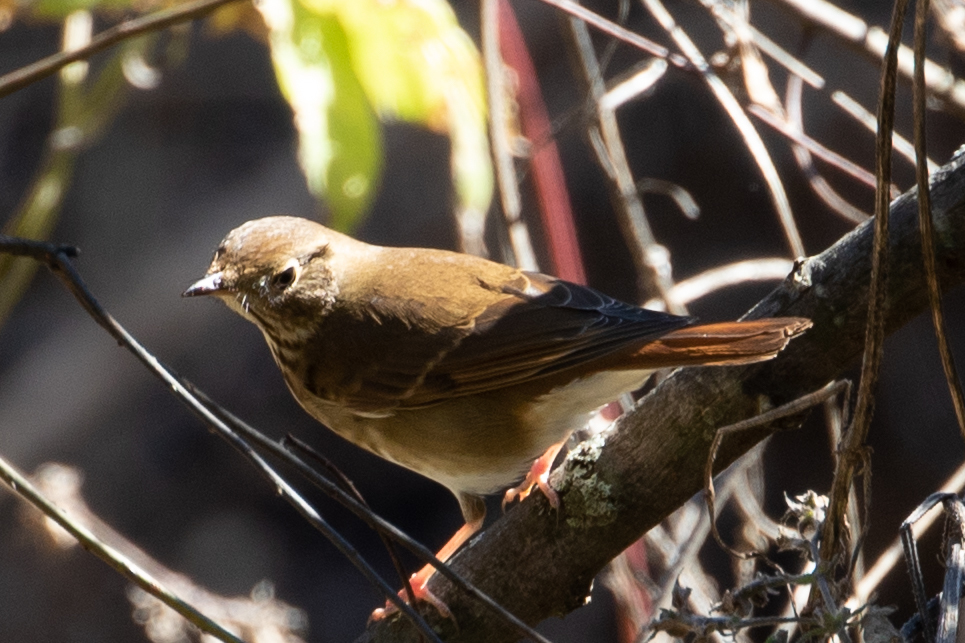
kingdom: Animalia
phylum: Chordata
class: Aves
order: Passeriformes
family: Turdidae
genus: Catharus
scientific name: Catharus guttatus
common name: Hermit thrush
